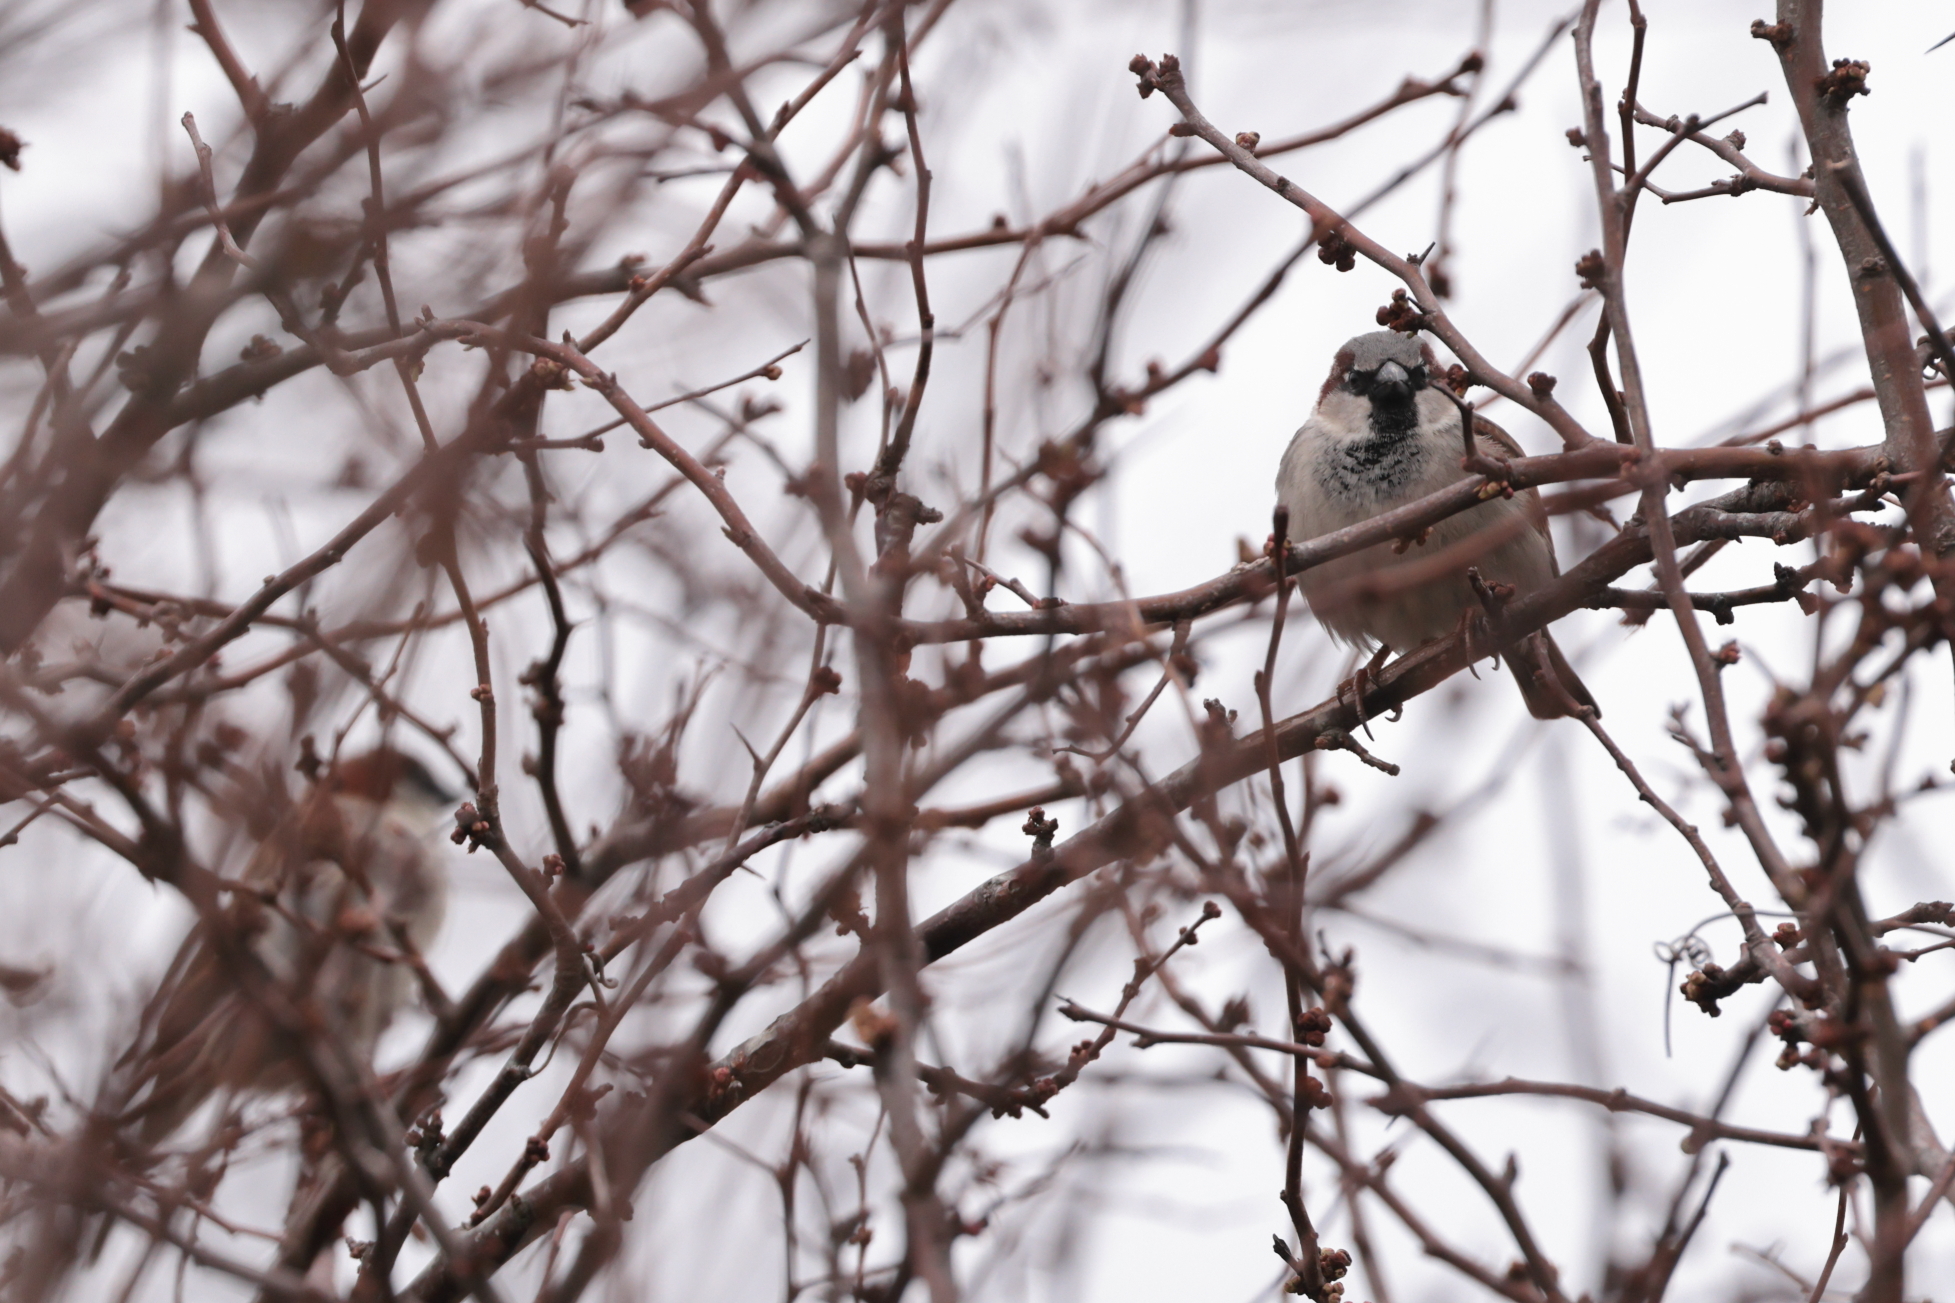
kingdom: Animalia
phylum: Chordata
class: Aves
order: Passeriformes
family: Passeridae
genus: Passer
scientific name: Passer domesticus
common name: House sparrow
